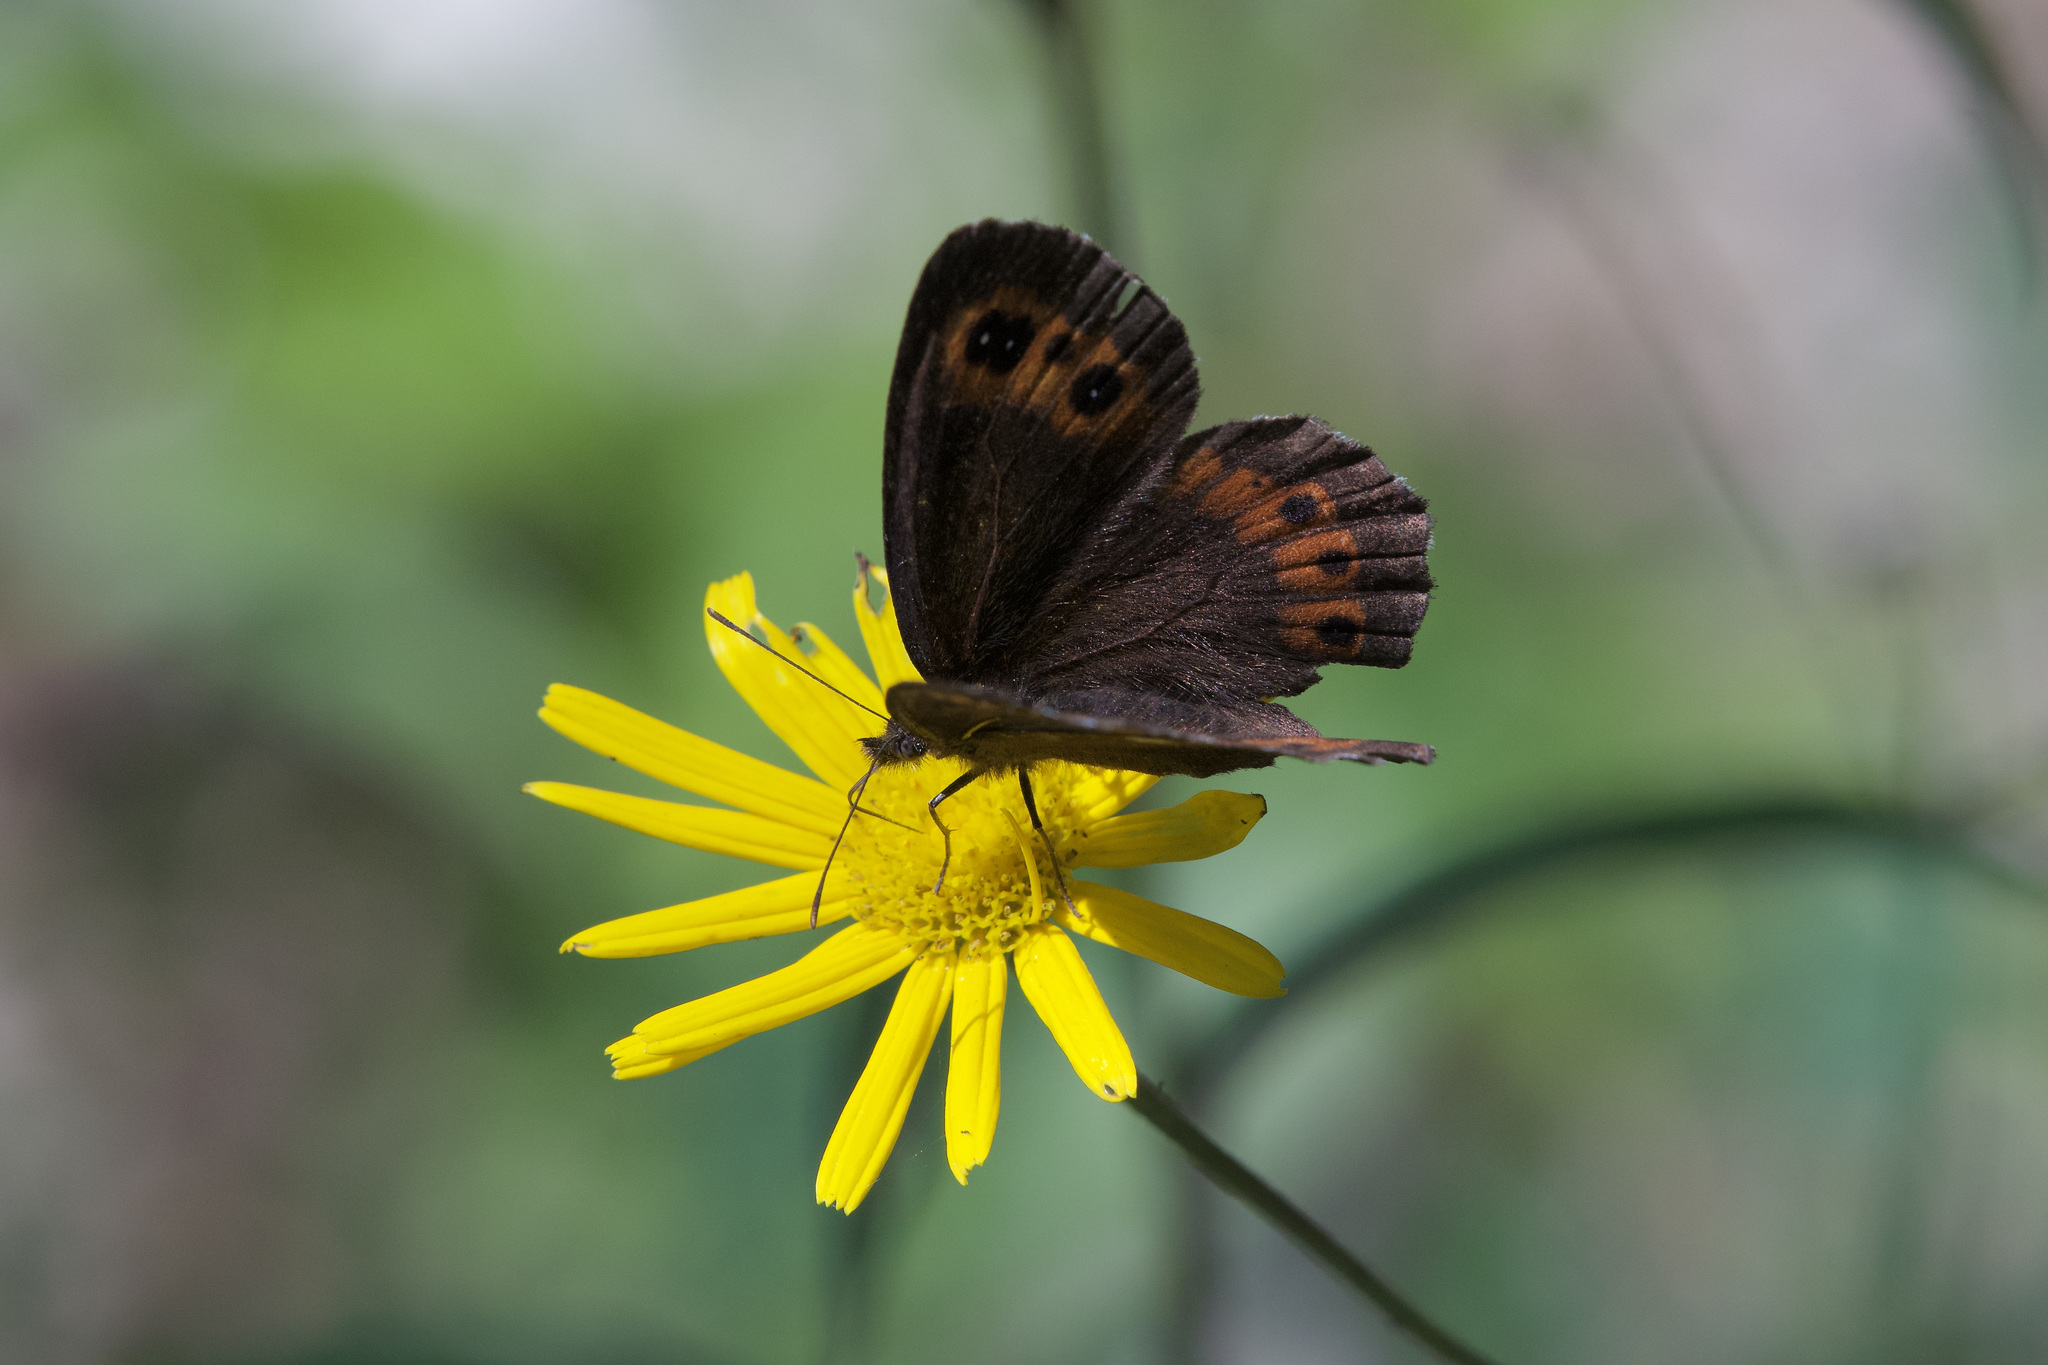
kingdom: Animalia
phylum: Arthropoda
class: Insecta
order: Lepidoptera
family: Nymphalidae
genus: Erebia
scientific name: Erebia ligea
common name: Arran brown
